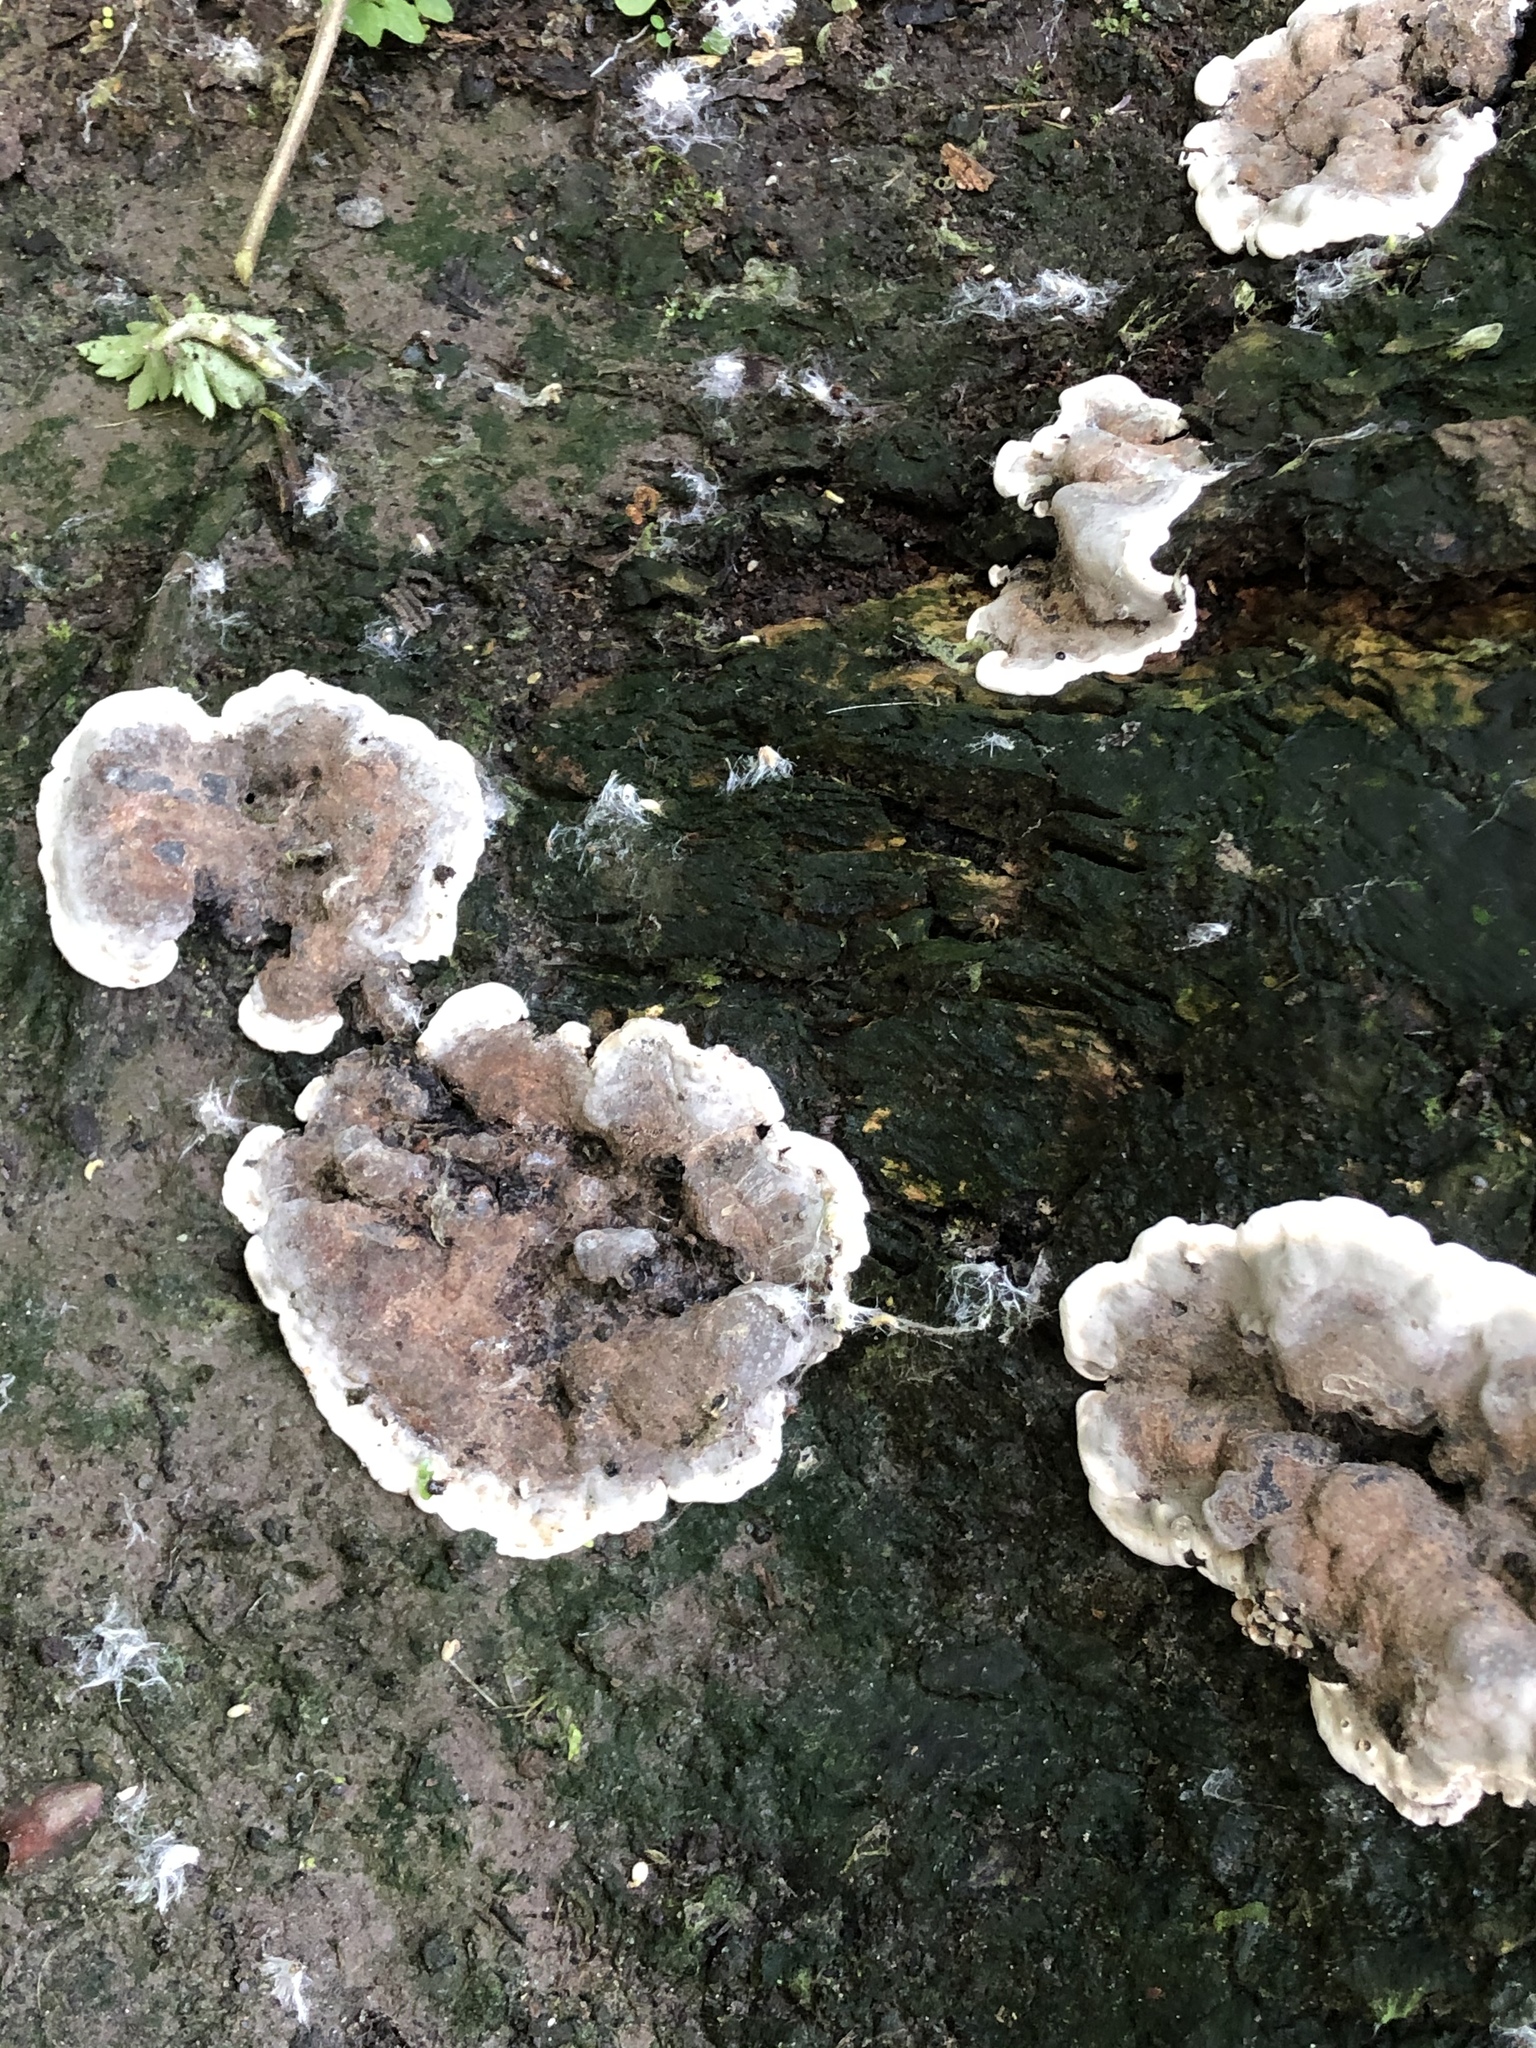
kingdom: Fungi
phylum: Ascomycota
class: Sordariomycetes
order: Xylariales
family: Xylariaceae
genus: Kretzschmaria
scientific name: Kretzschmaria deusta
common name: Brittle cinder
